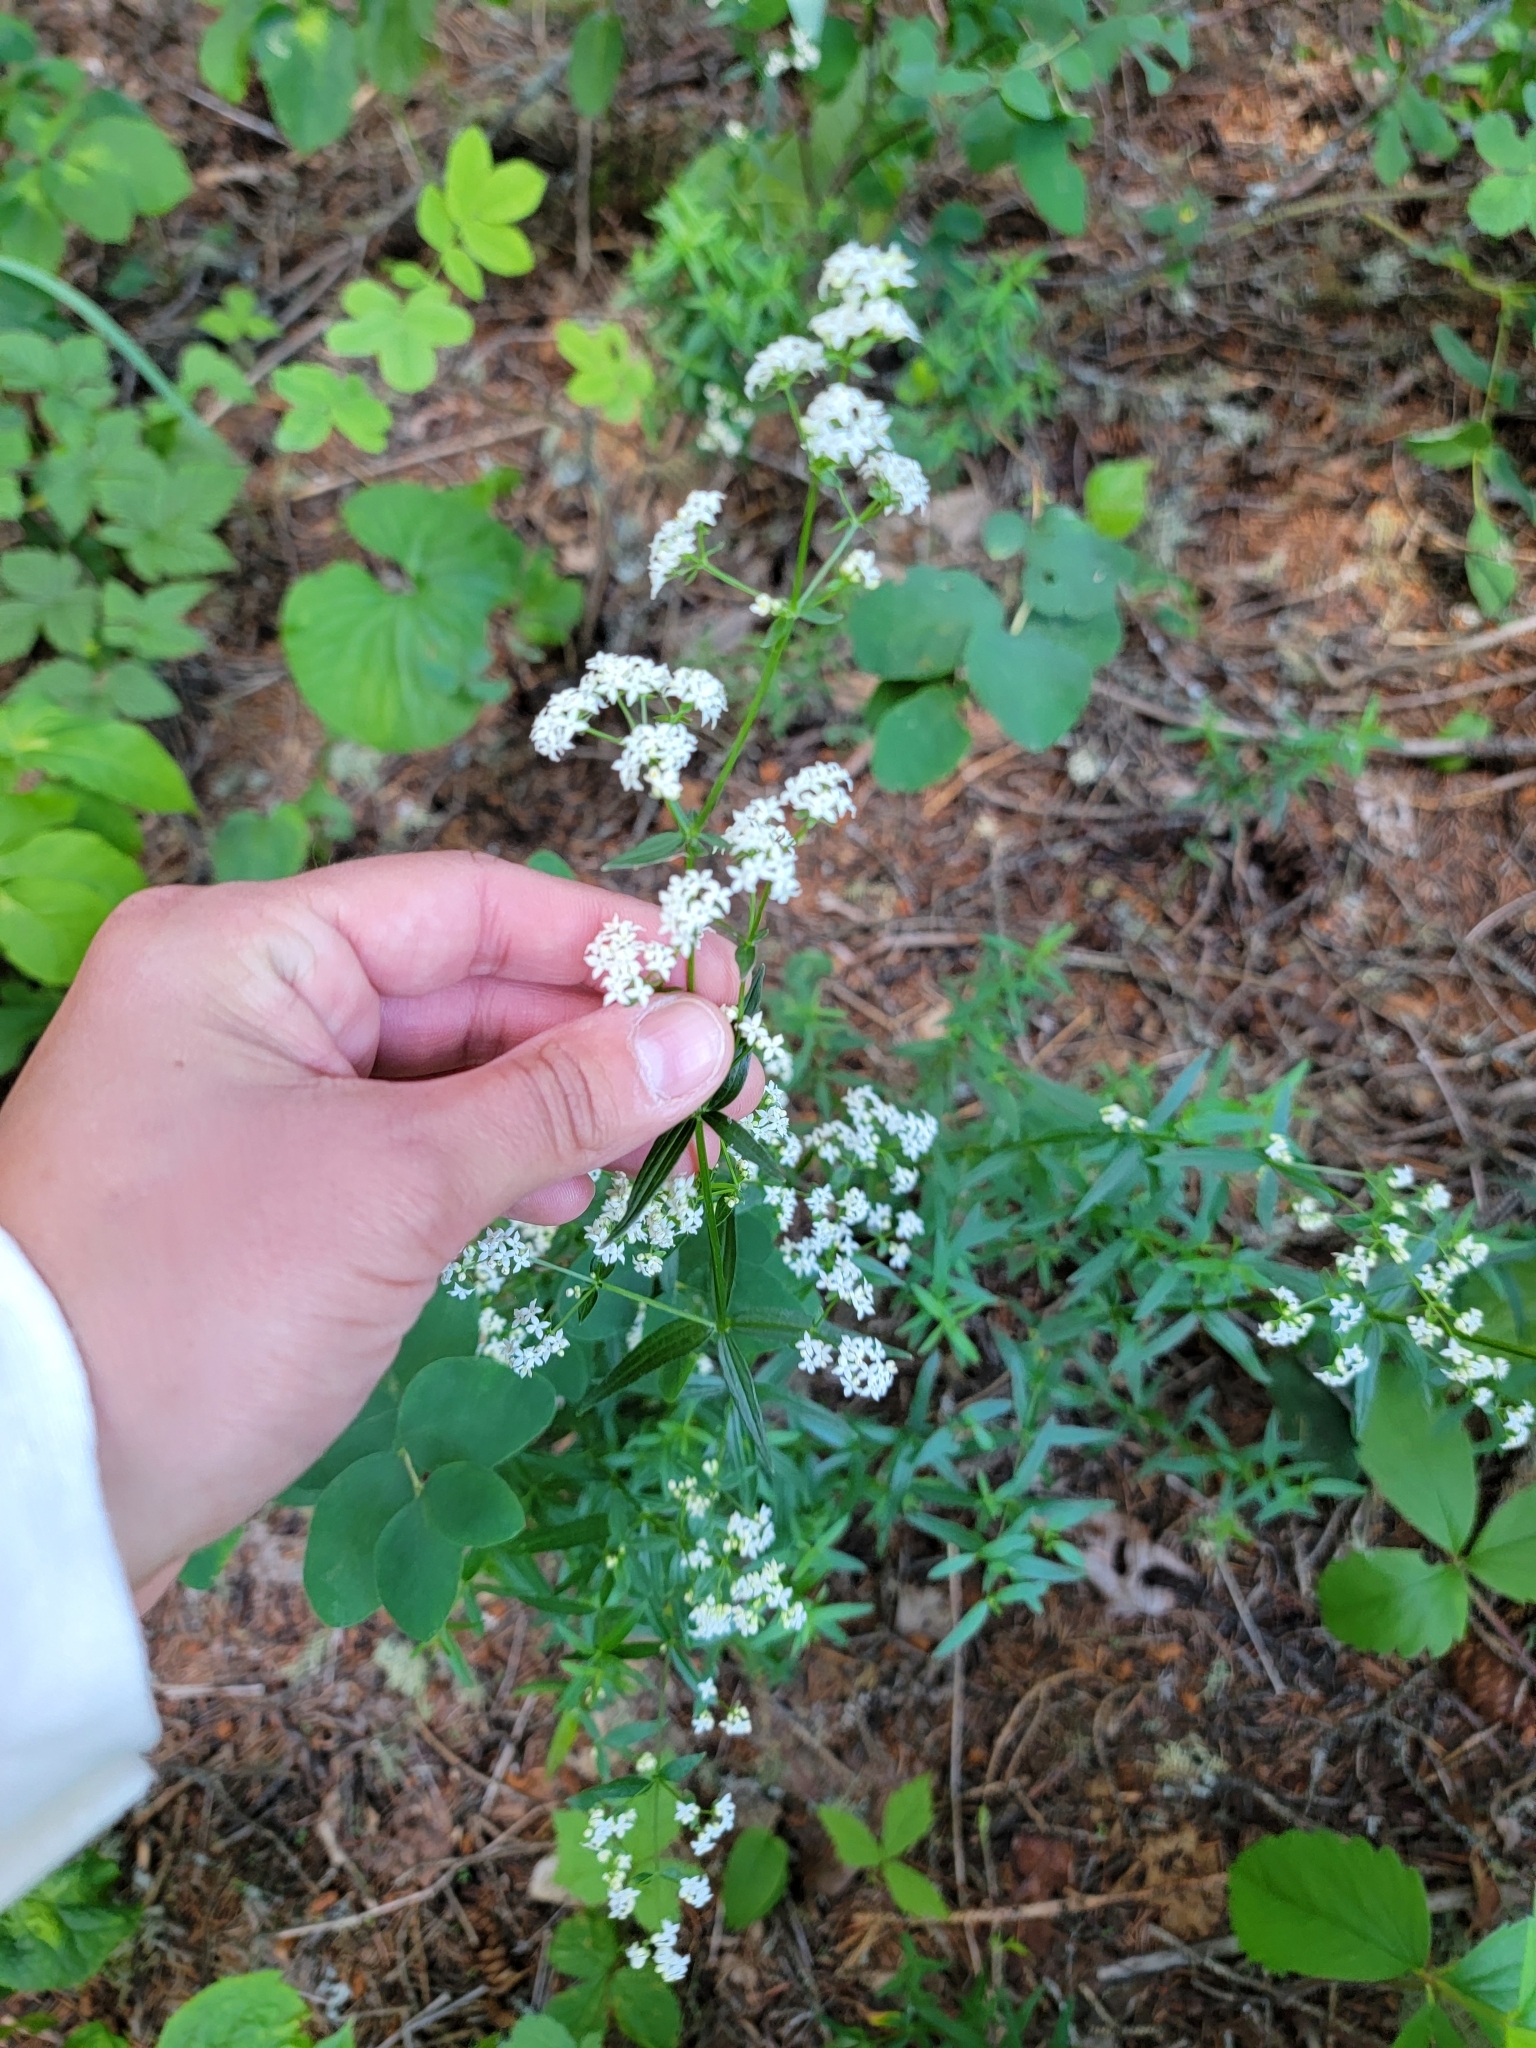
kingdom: Plantae
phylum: Tracheophyta
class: Magnoliopsida
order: Gentianales
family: Rubiaceae
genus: Galium
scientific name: Galium boreale
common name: Northern bedstraw
